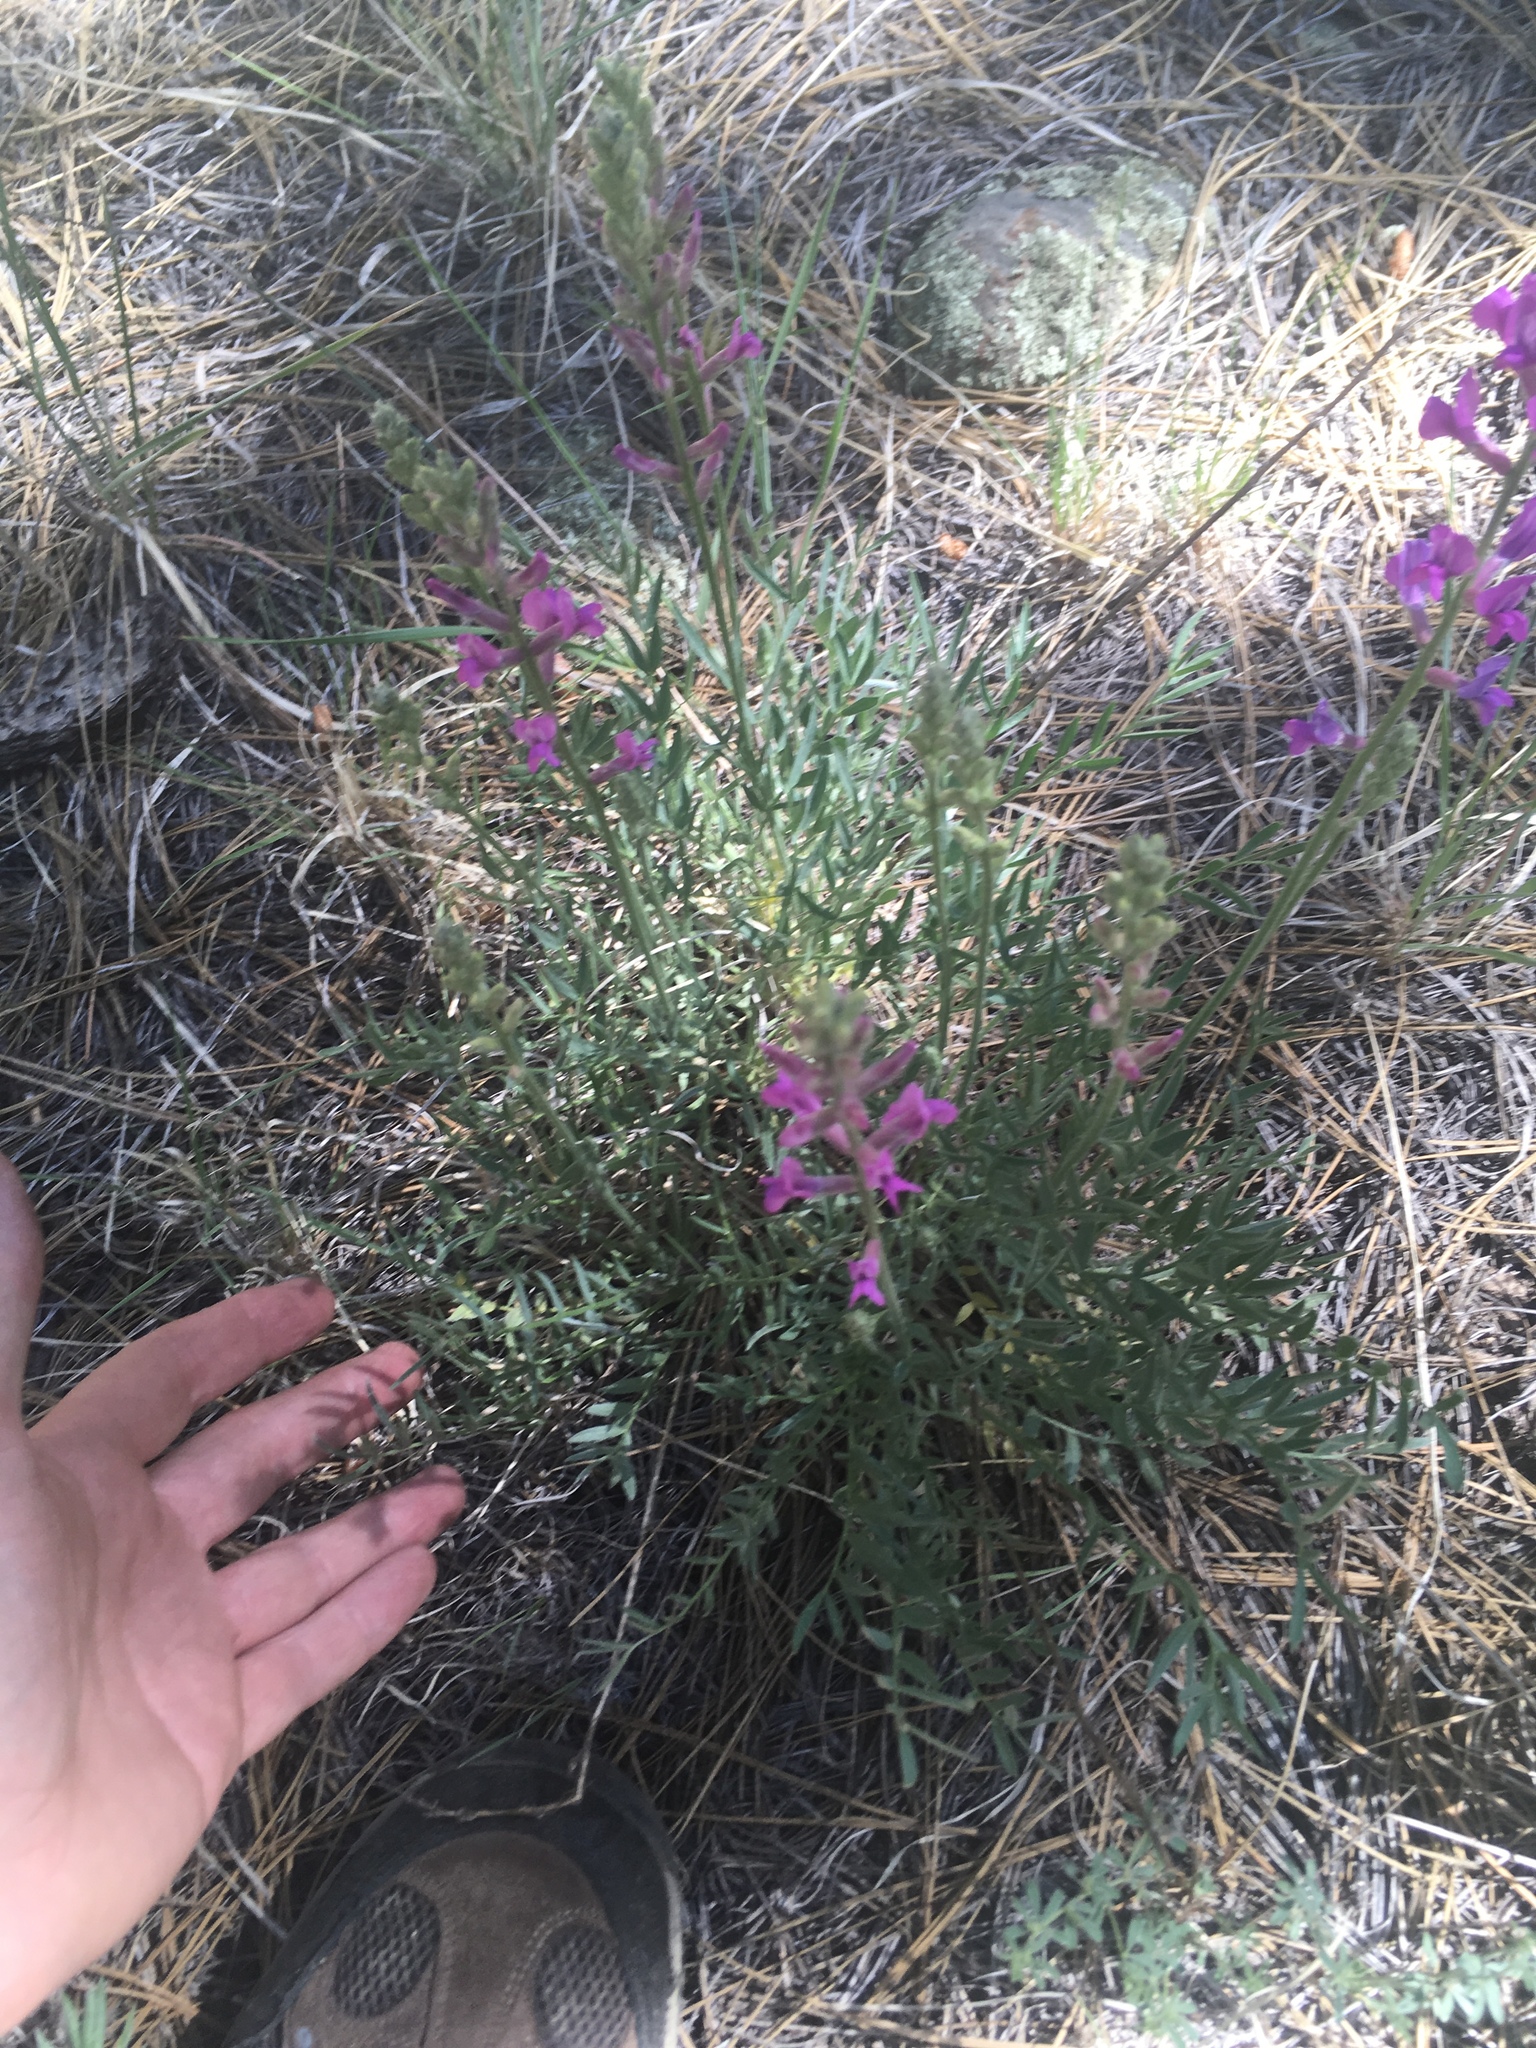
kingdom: Plantae
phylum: Tracheophyta
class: Magnoliopsida
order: Fabales
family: Fabaceae
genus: Oxytropis
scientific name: Oxytropis lambertii
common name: Purple locoweed
